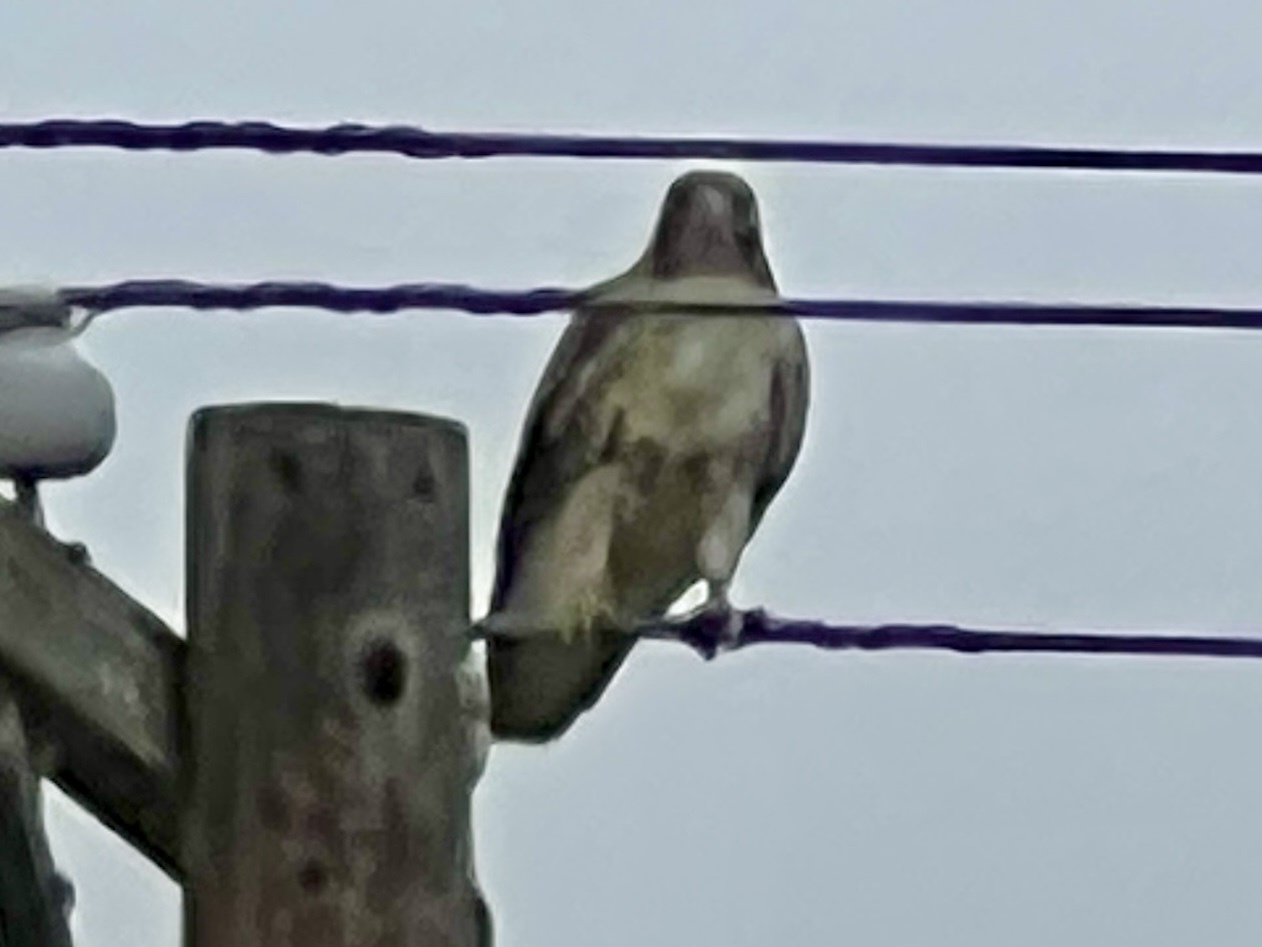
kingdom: Animalia
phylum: Chordata
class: Aves
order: Accipitriformes
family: Accipitridae
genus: Buteo
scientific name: Buteo jamaicensis
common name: Red-tailed hawk
